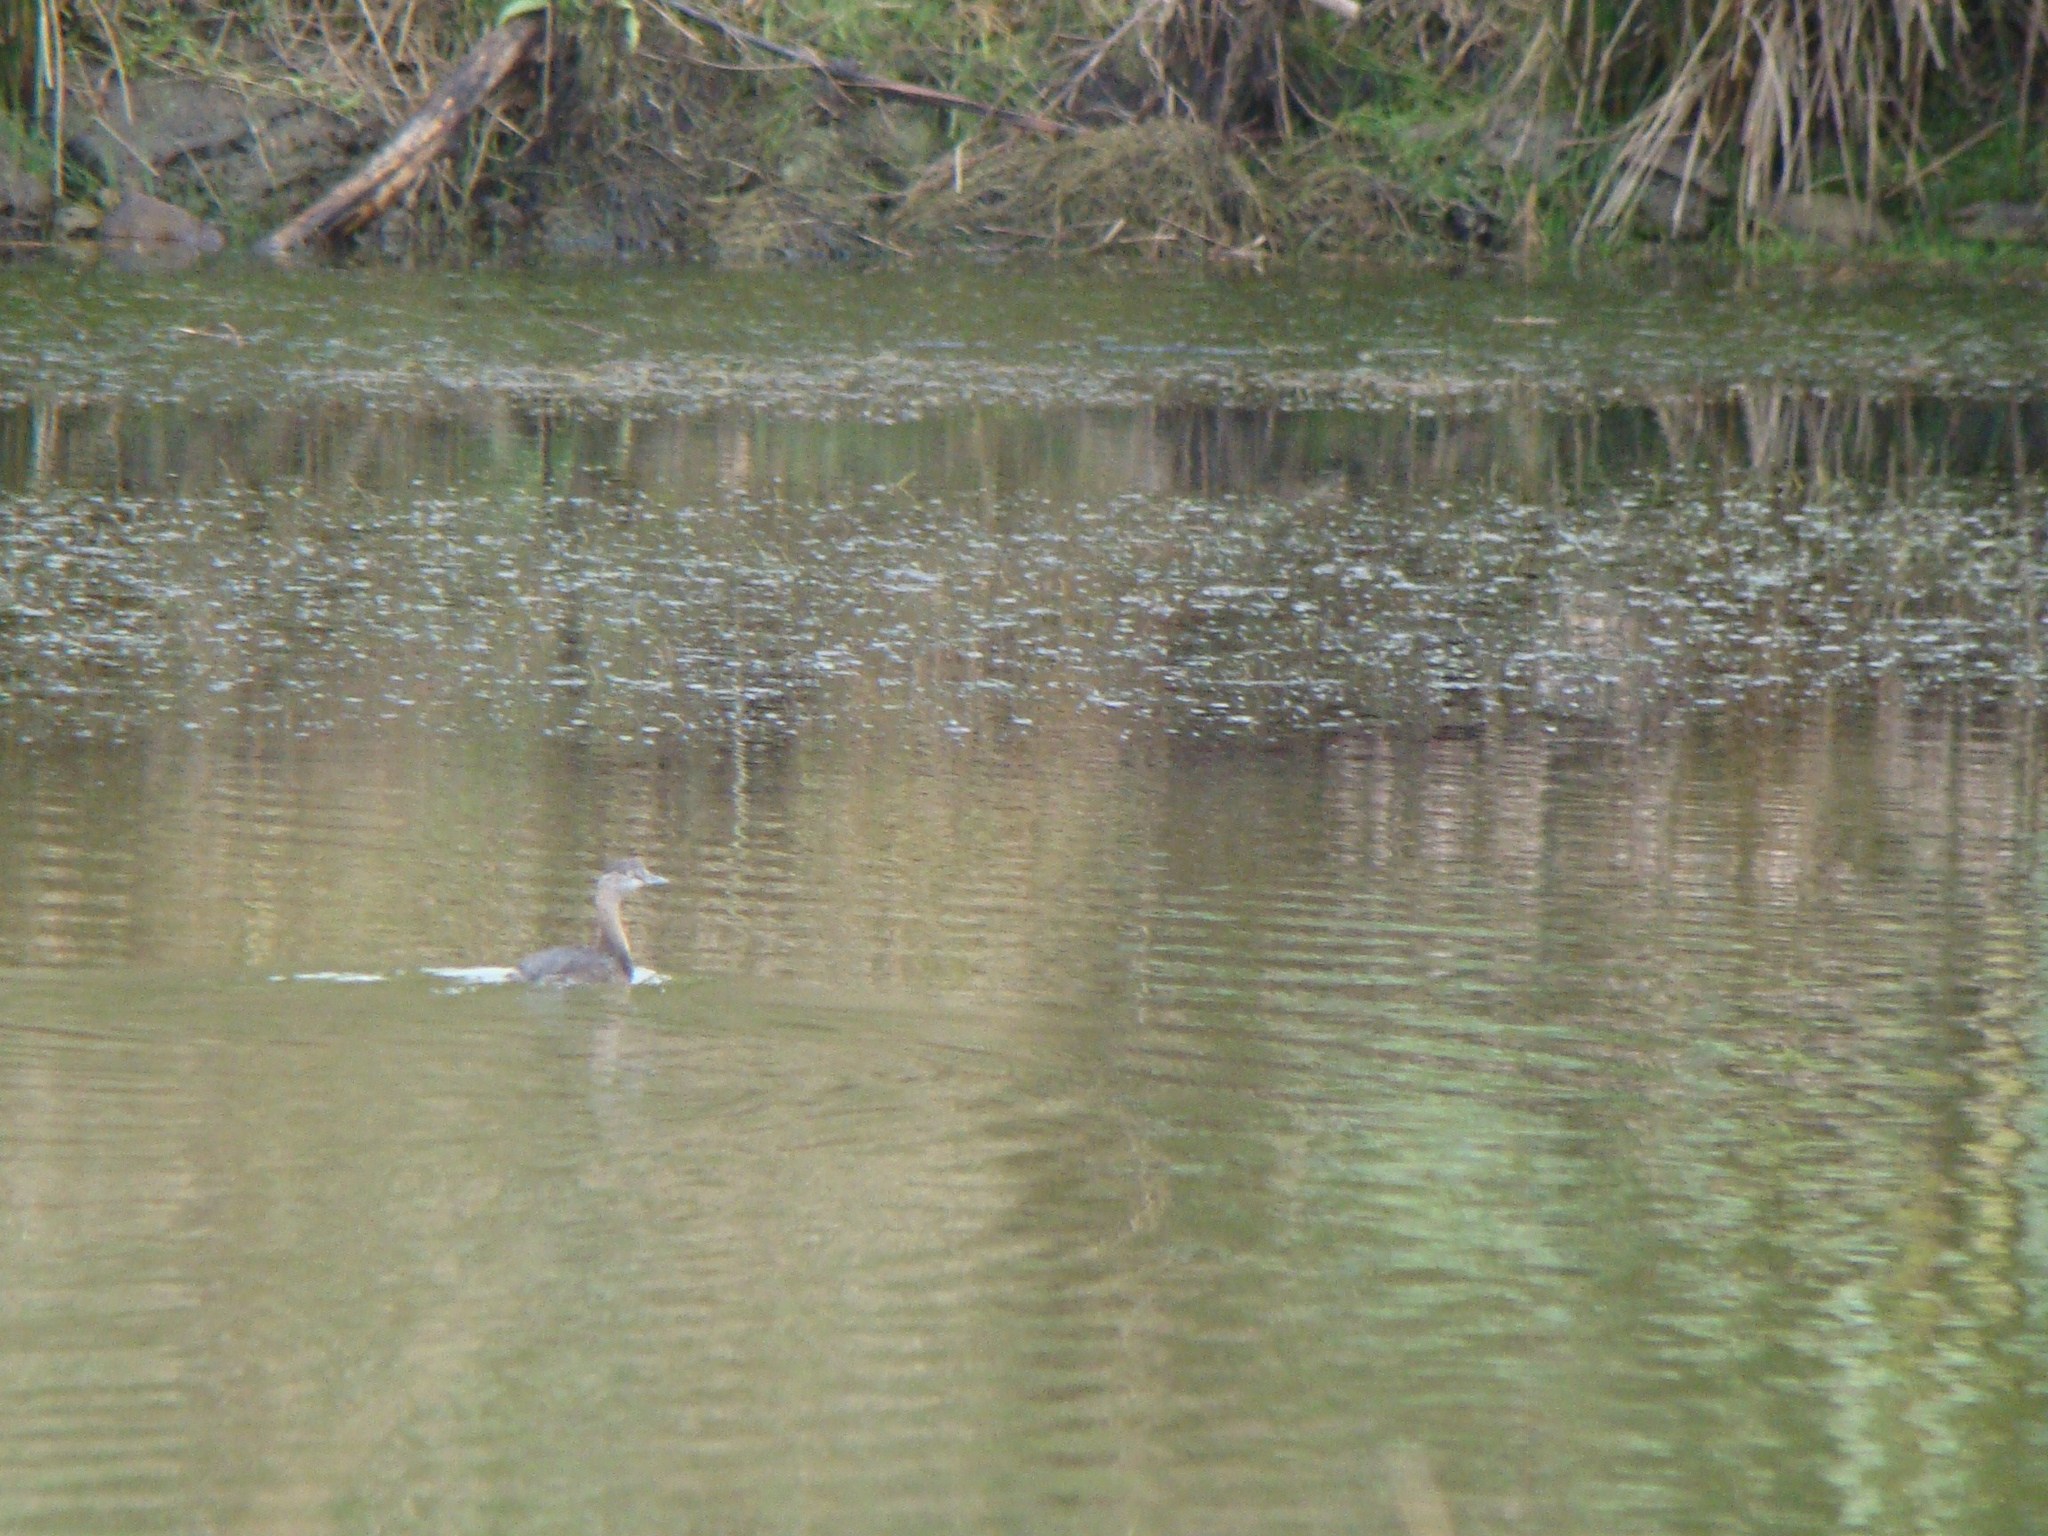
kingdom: Animalia
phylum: Chordata
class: Aves
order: Podicipediformes
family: Podicipedidae
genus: Poliocephalus
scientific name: Poliocephalus rufopectus
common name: New zealand grebe
